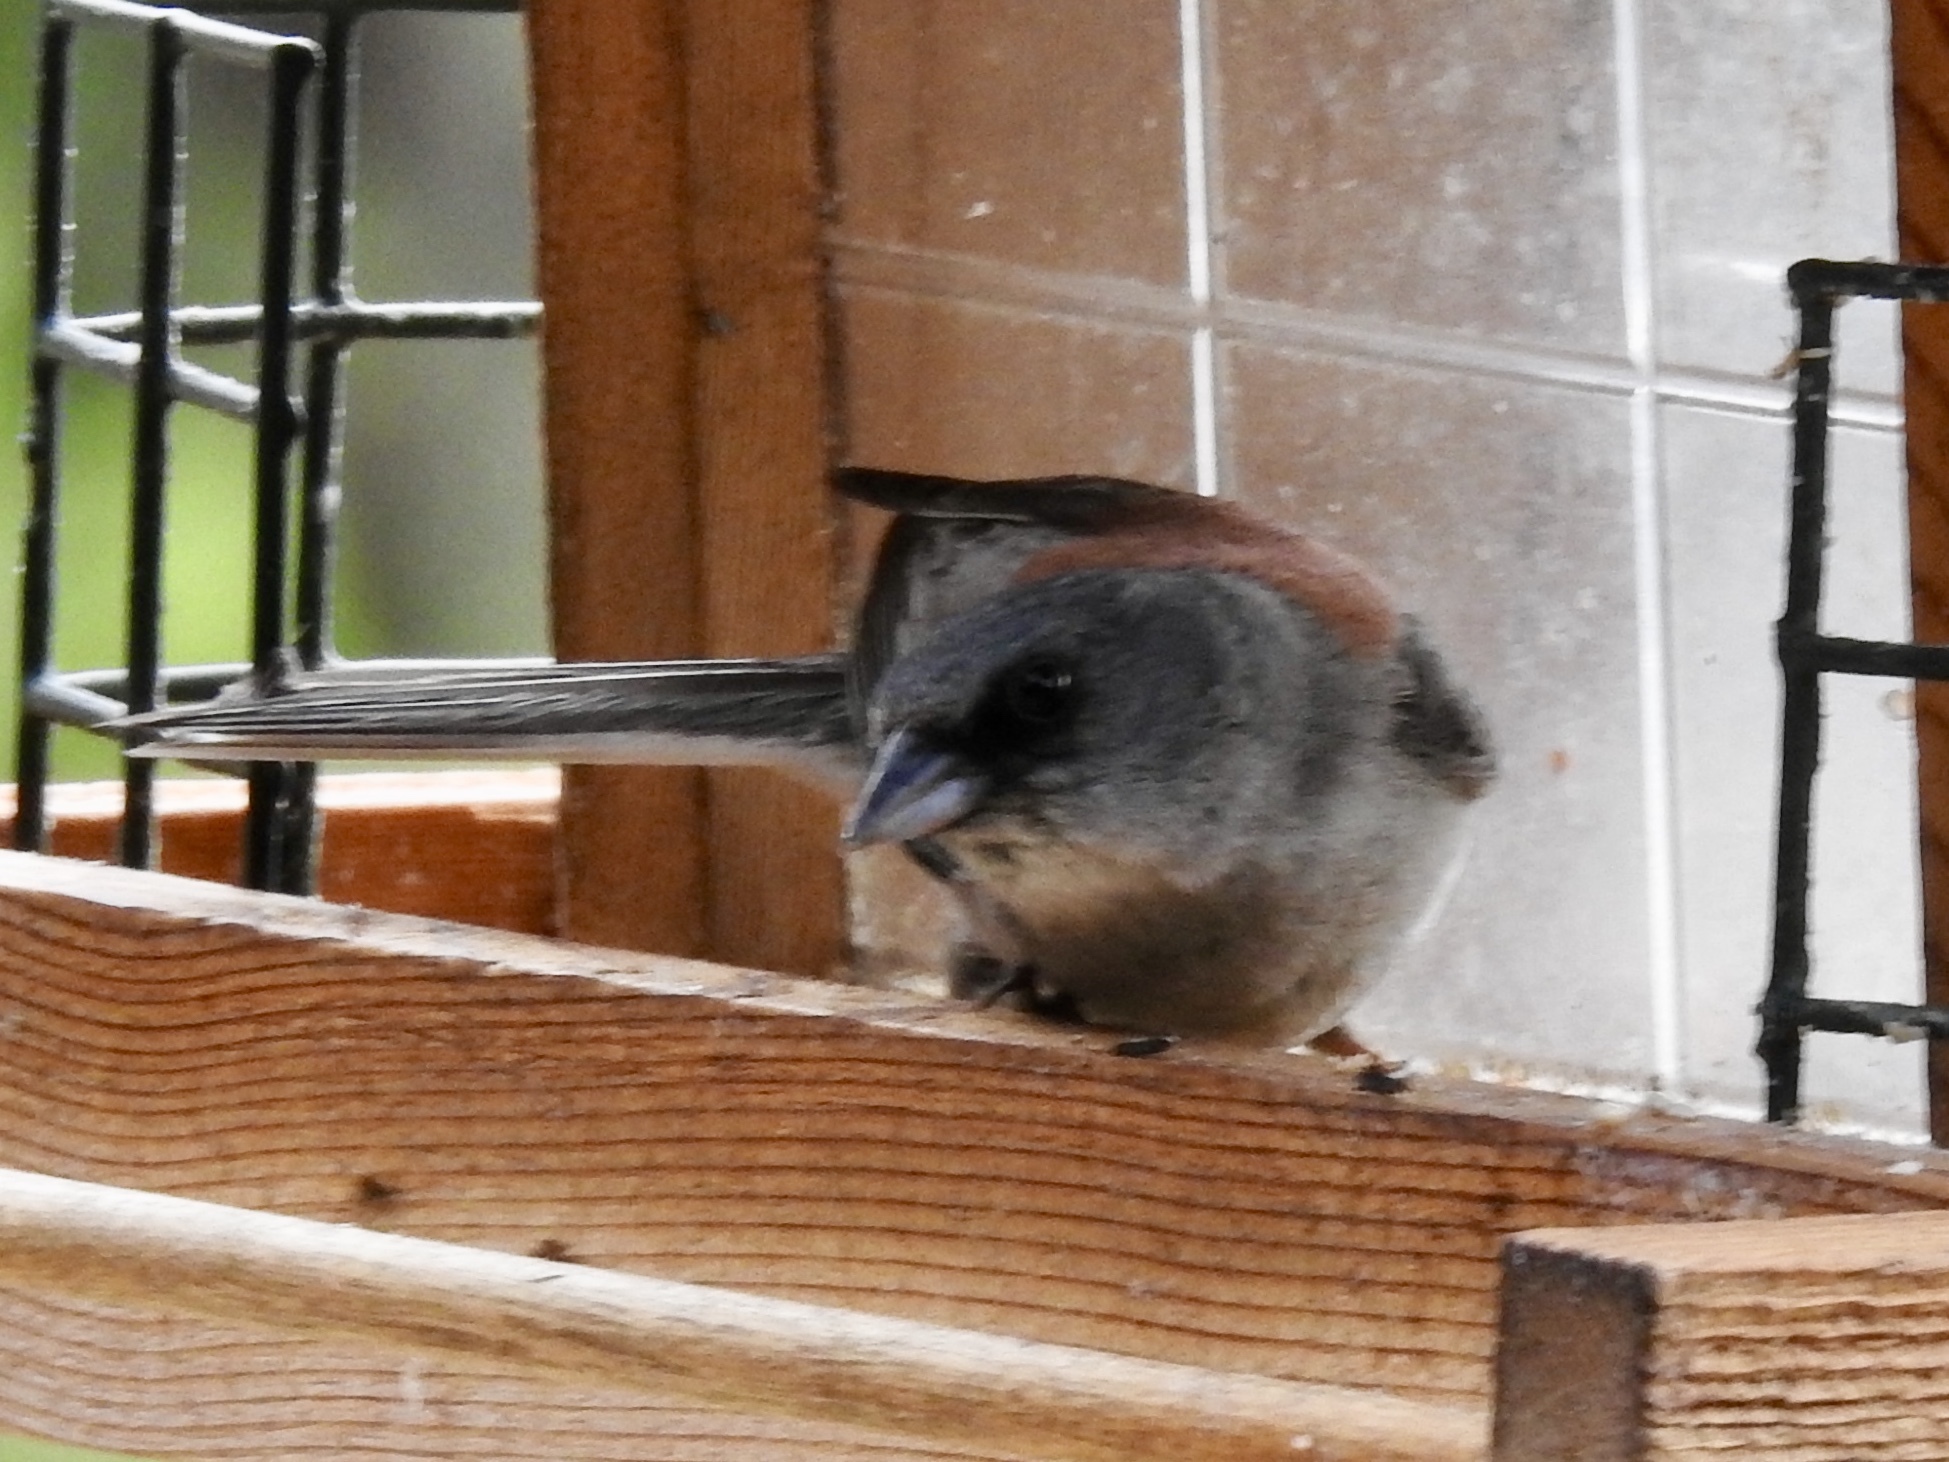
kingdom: Animalia
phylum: Chordata
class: Aves
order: Passeriformes
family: Passerellidae
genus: Junco
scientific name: Junco hyemalis
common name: Dark-eyed junco
